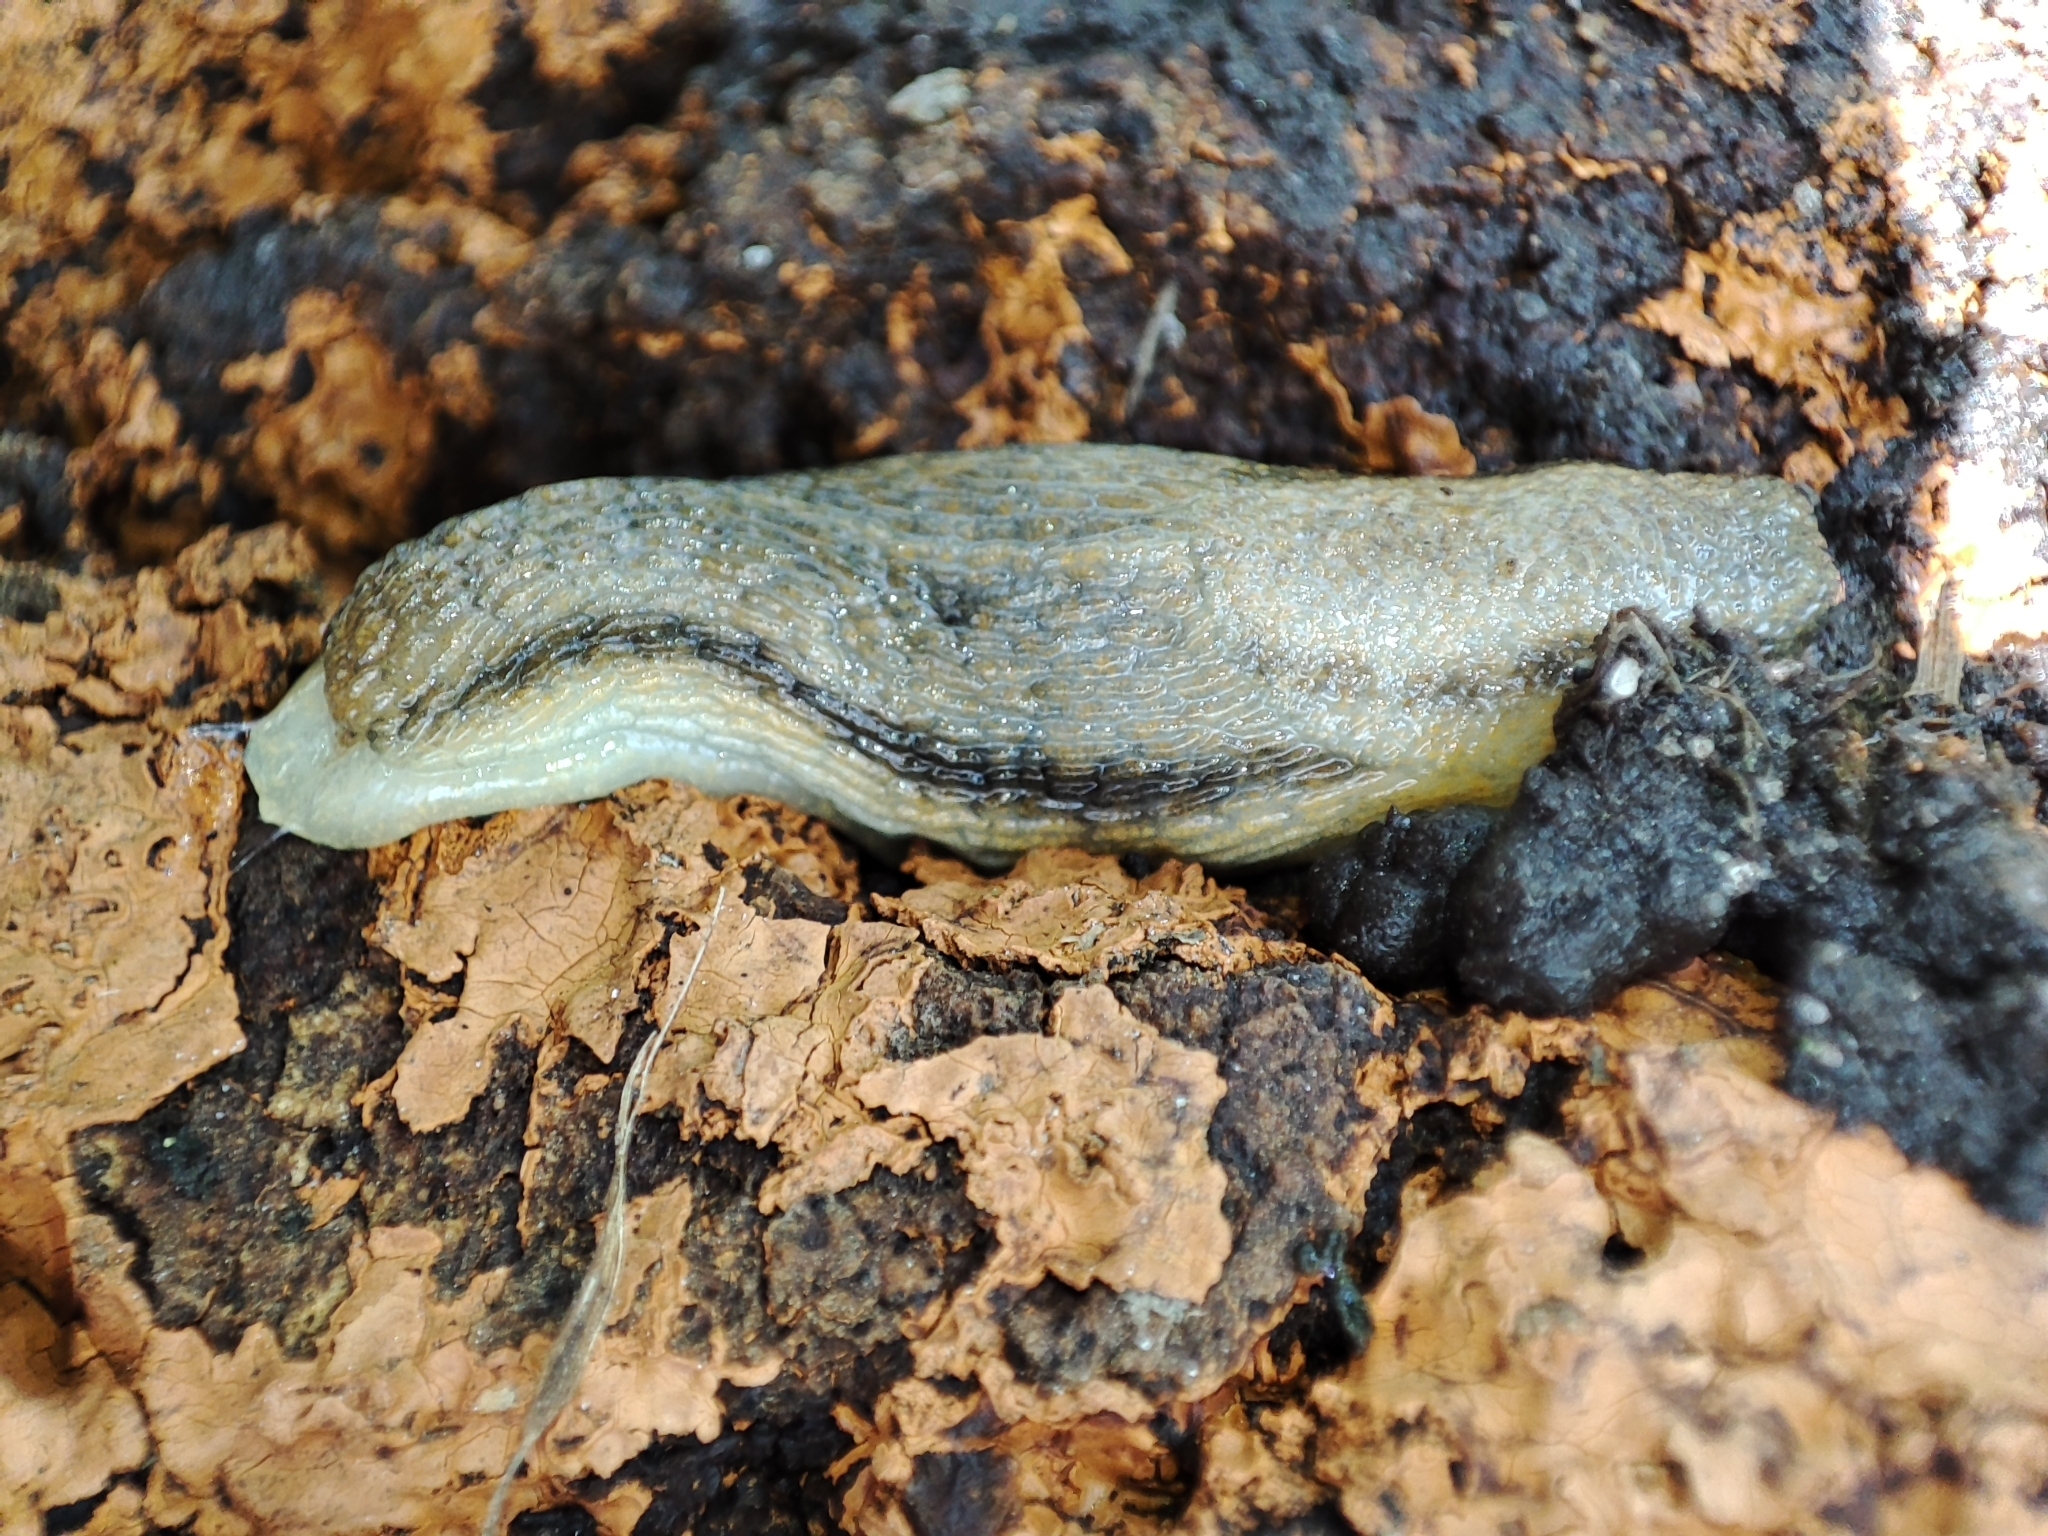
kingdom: Animalia
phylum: Mollusca
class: Gastropoda
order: Stylommatophora
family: Arionidae
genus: Arion
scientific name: Arion fasciatus
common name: Orange-banded arion
